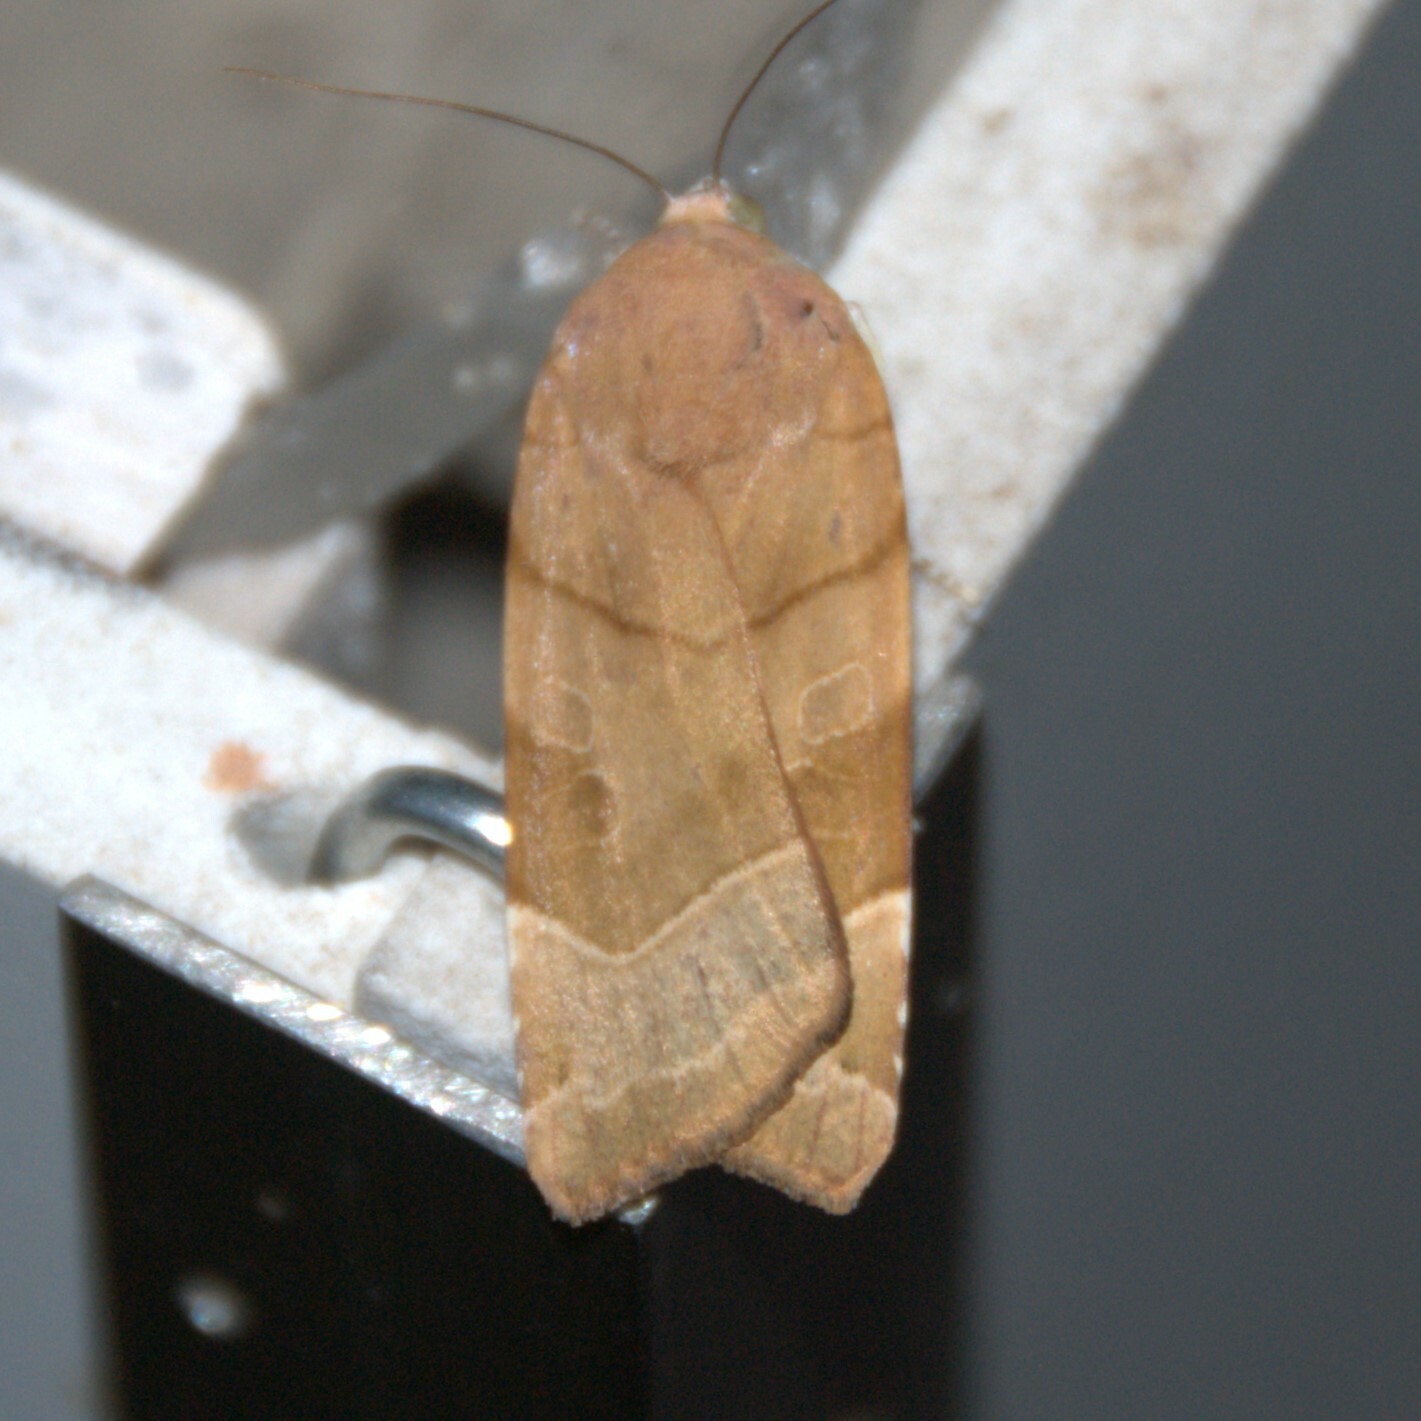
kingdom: Animalia
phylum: Arthropoda
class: Insecta
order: Lepidoptera
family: Noctuidae
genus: Noctua
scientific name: Noctua fimbriata
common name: Broad-bordered yellow underwing
